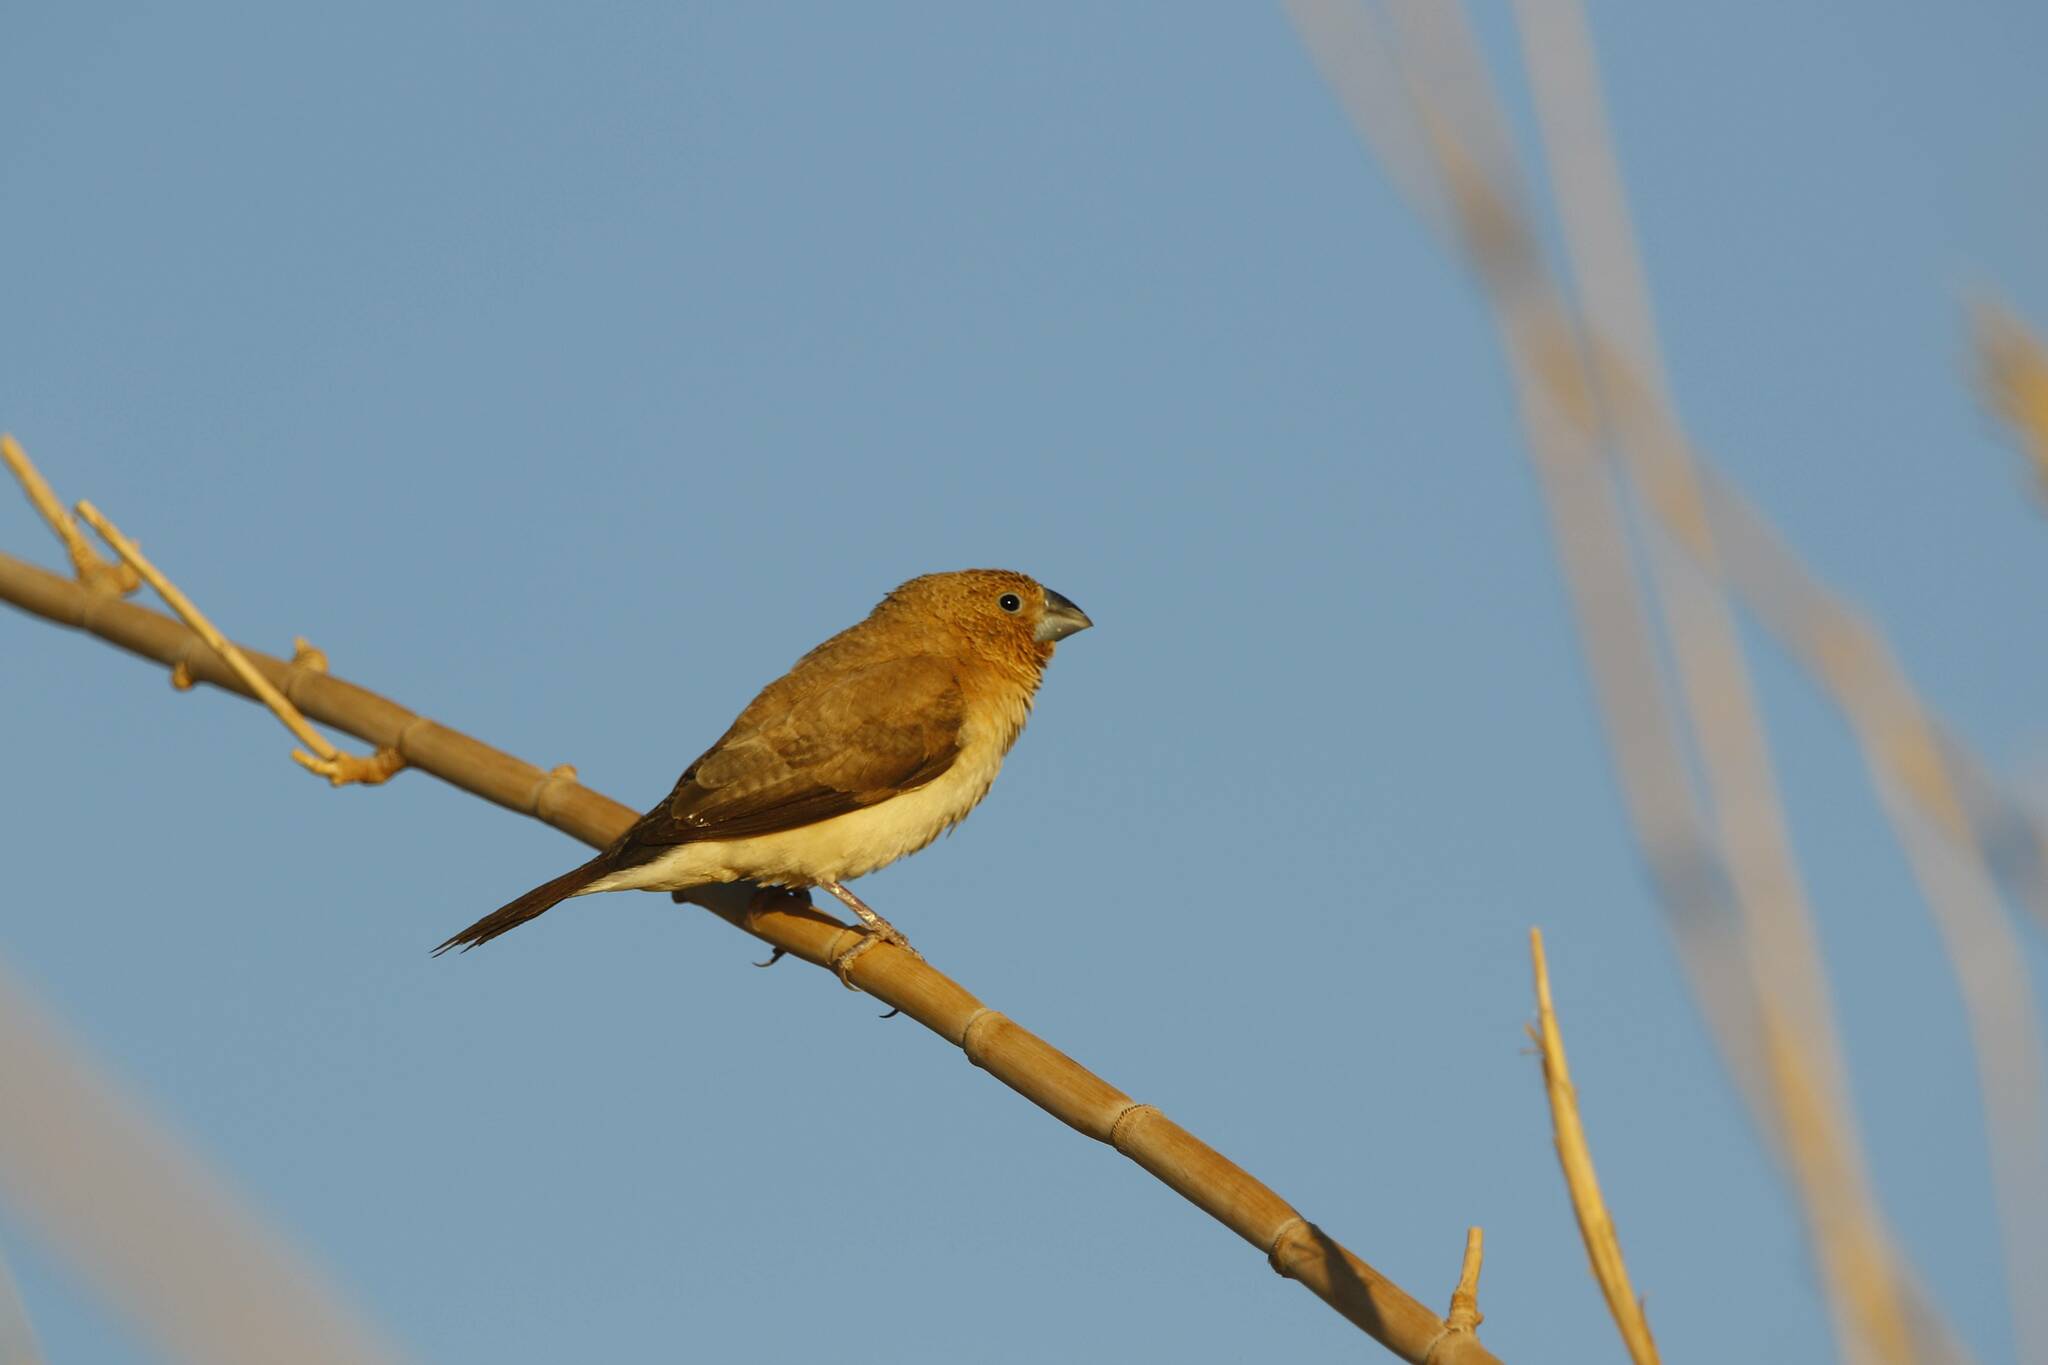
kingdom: Animalia
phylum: Chordata
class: Aves
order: Passeriformes
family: Estrildidae
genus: Euodice
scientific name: Euodice cantans
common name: African silverbill
